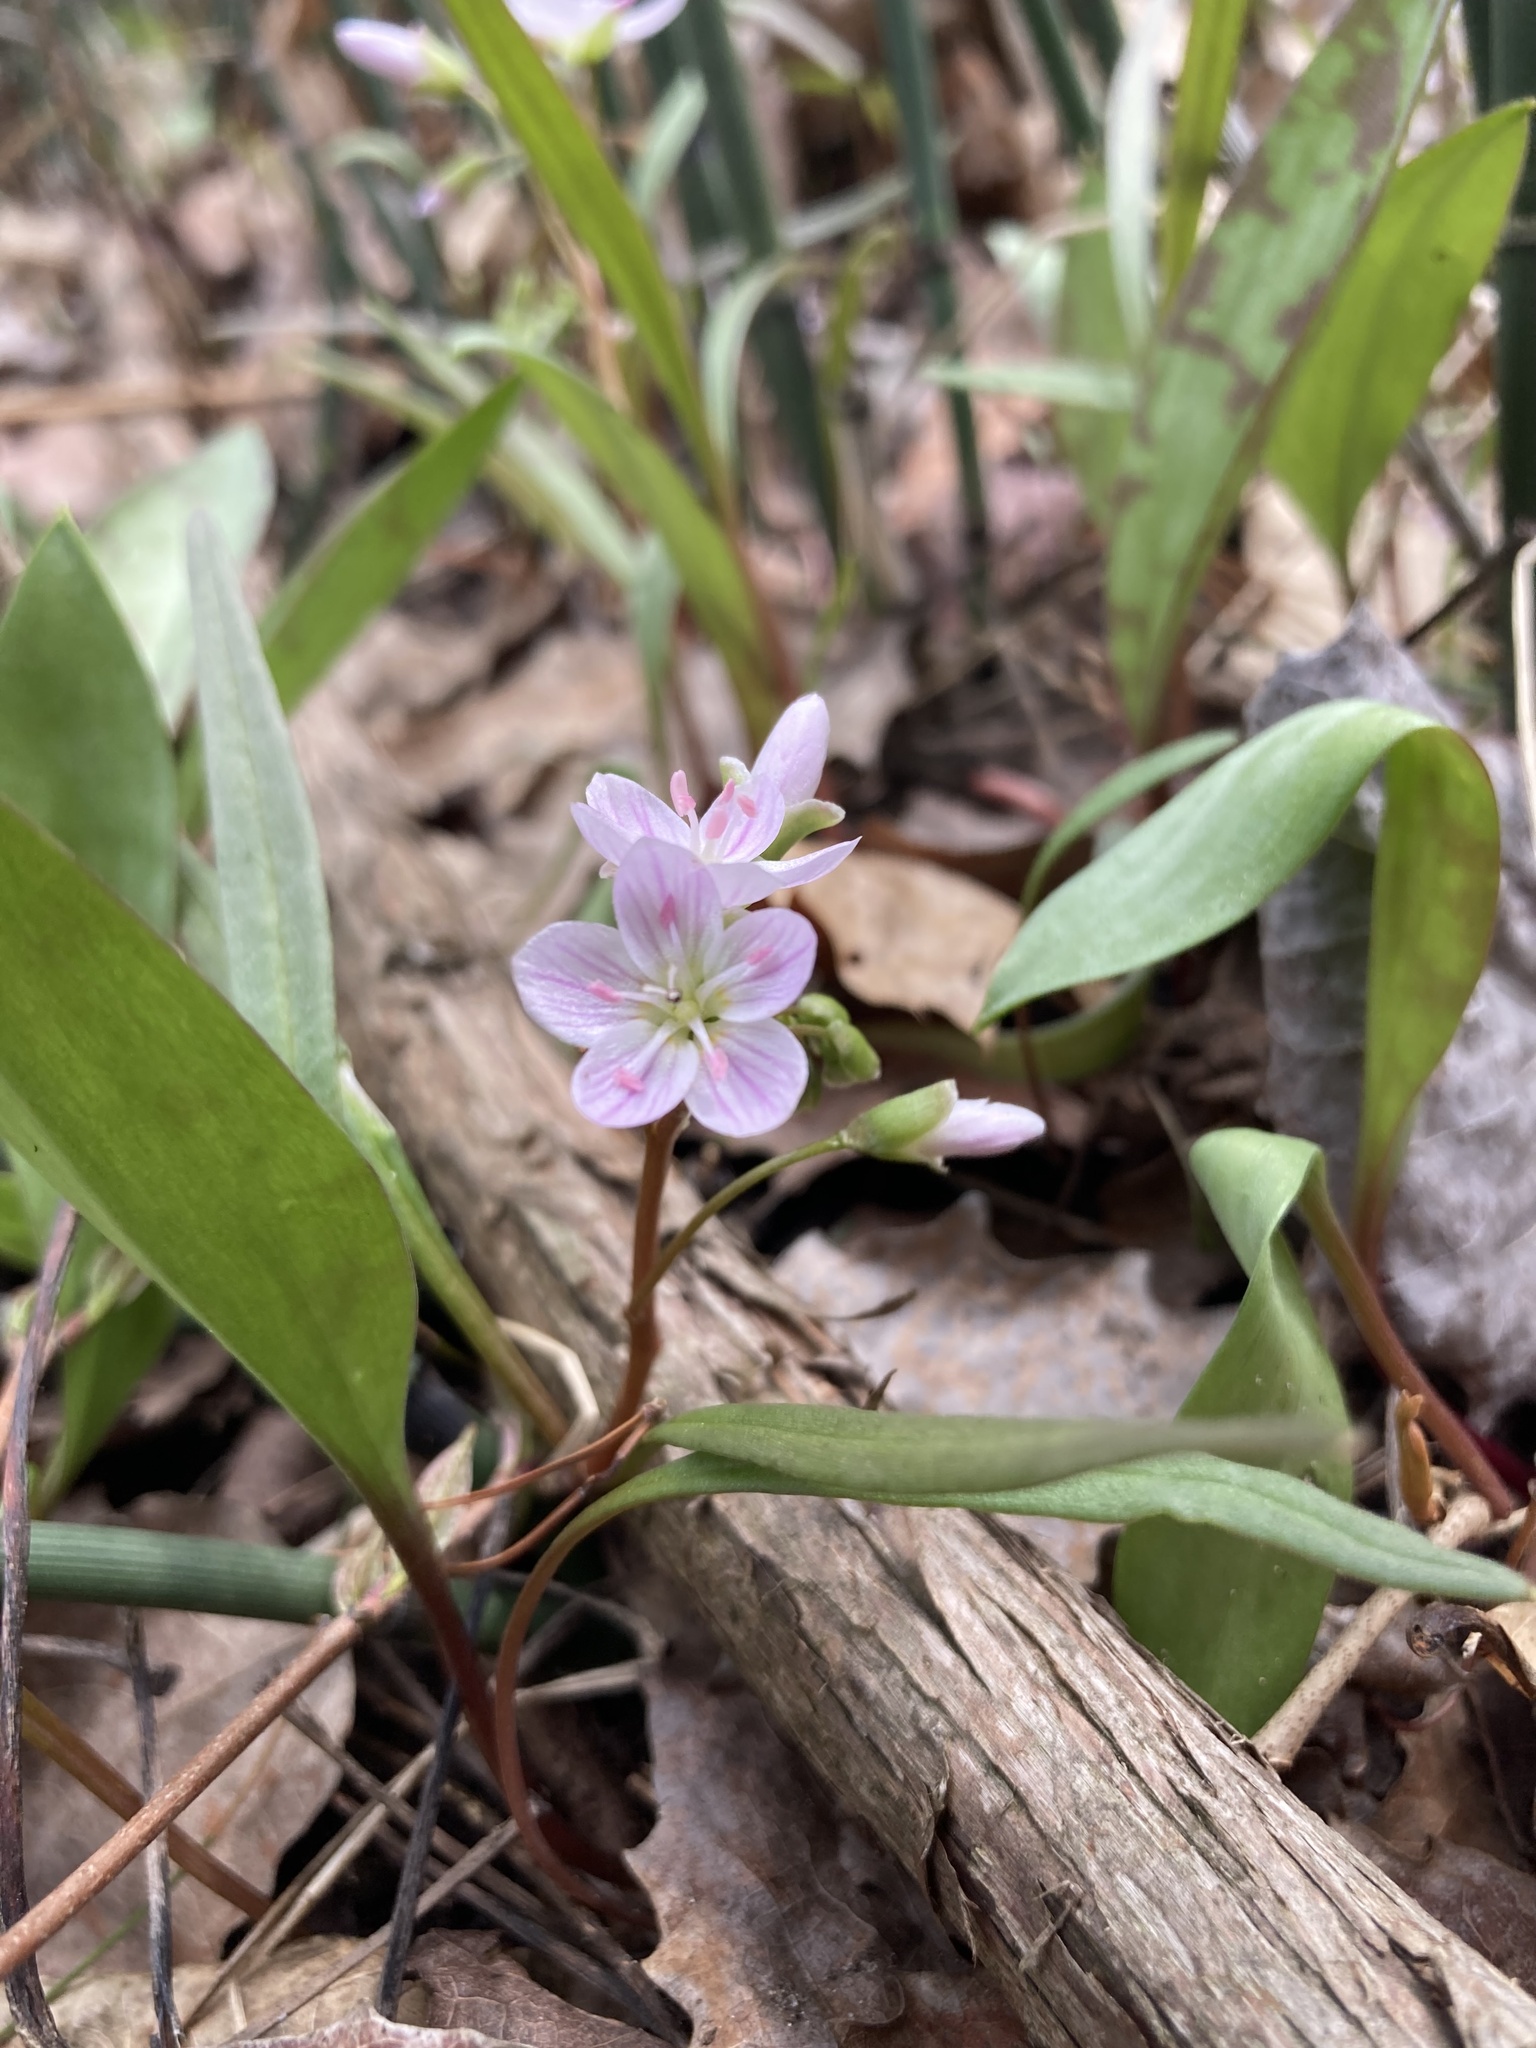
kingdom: Plantae
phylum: Tracheophyta
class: Magnoliopsida
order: Caryophyllales
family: Montiaceae
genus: Claytonia
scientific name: Claytonia virginica
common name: Virginia springbeauty
